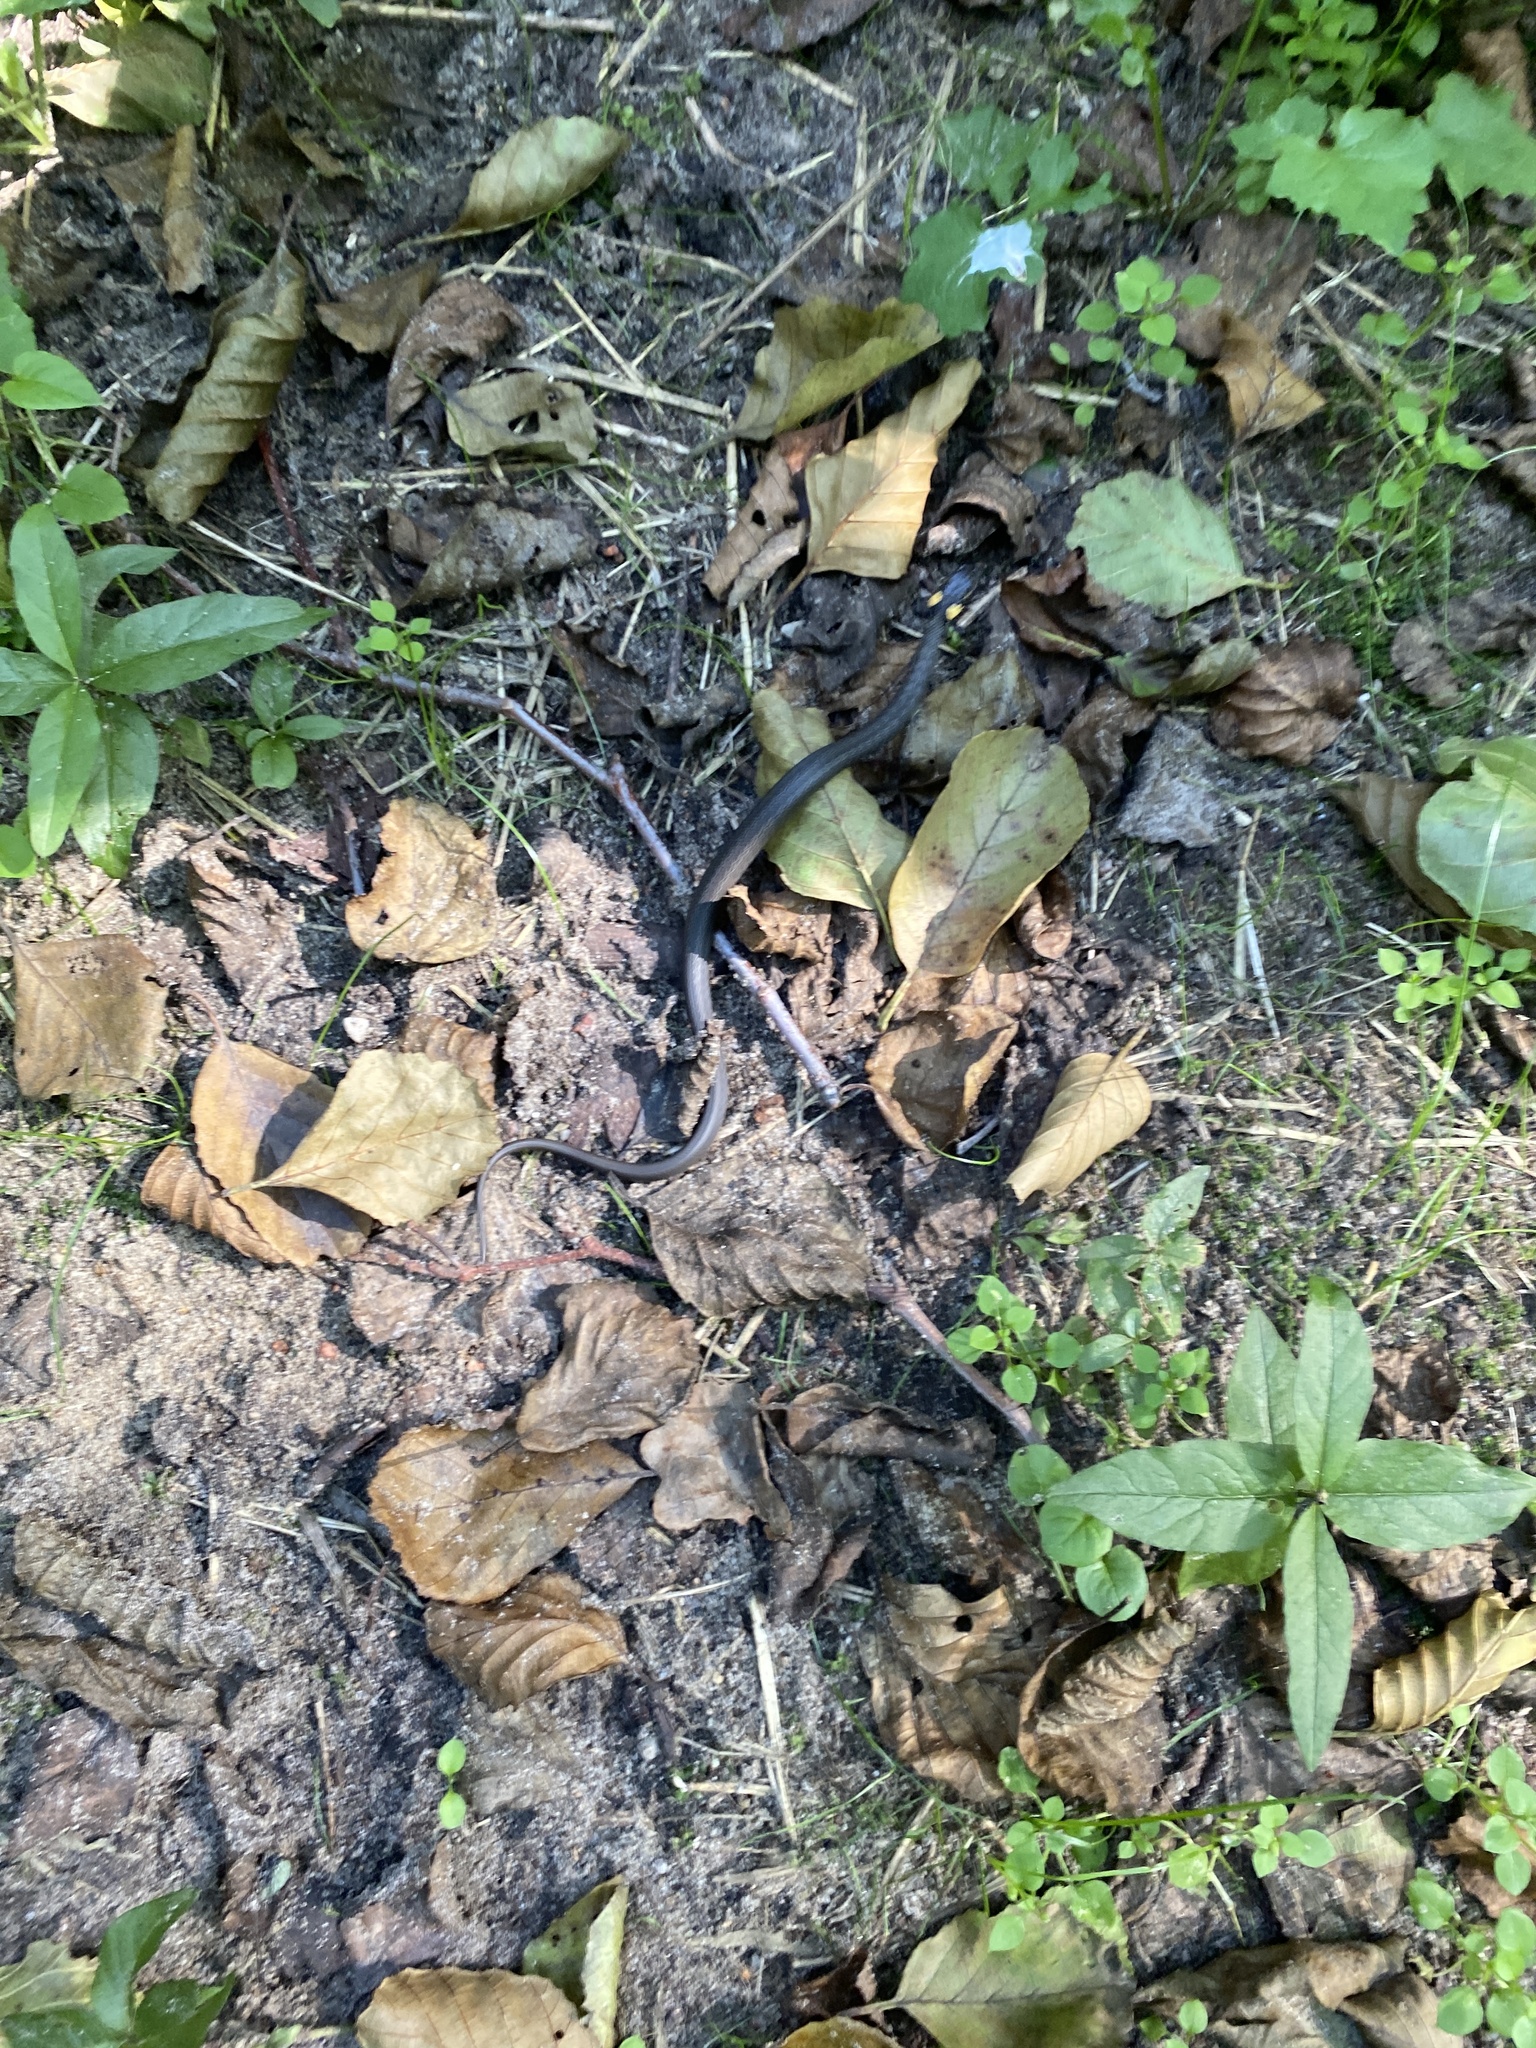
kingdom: Animalia
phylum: Chordata
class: Squamata
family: Colubridae
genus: Natrix
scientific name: Natrix natrix
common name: Grass snake
